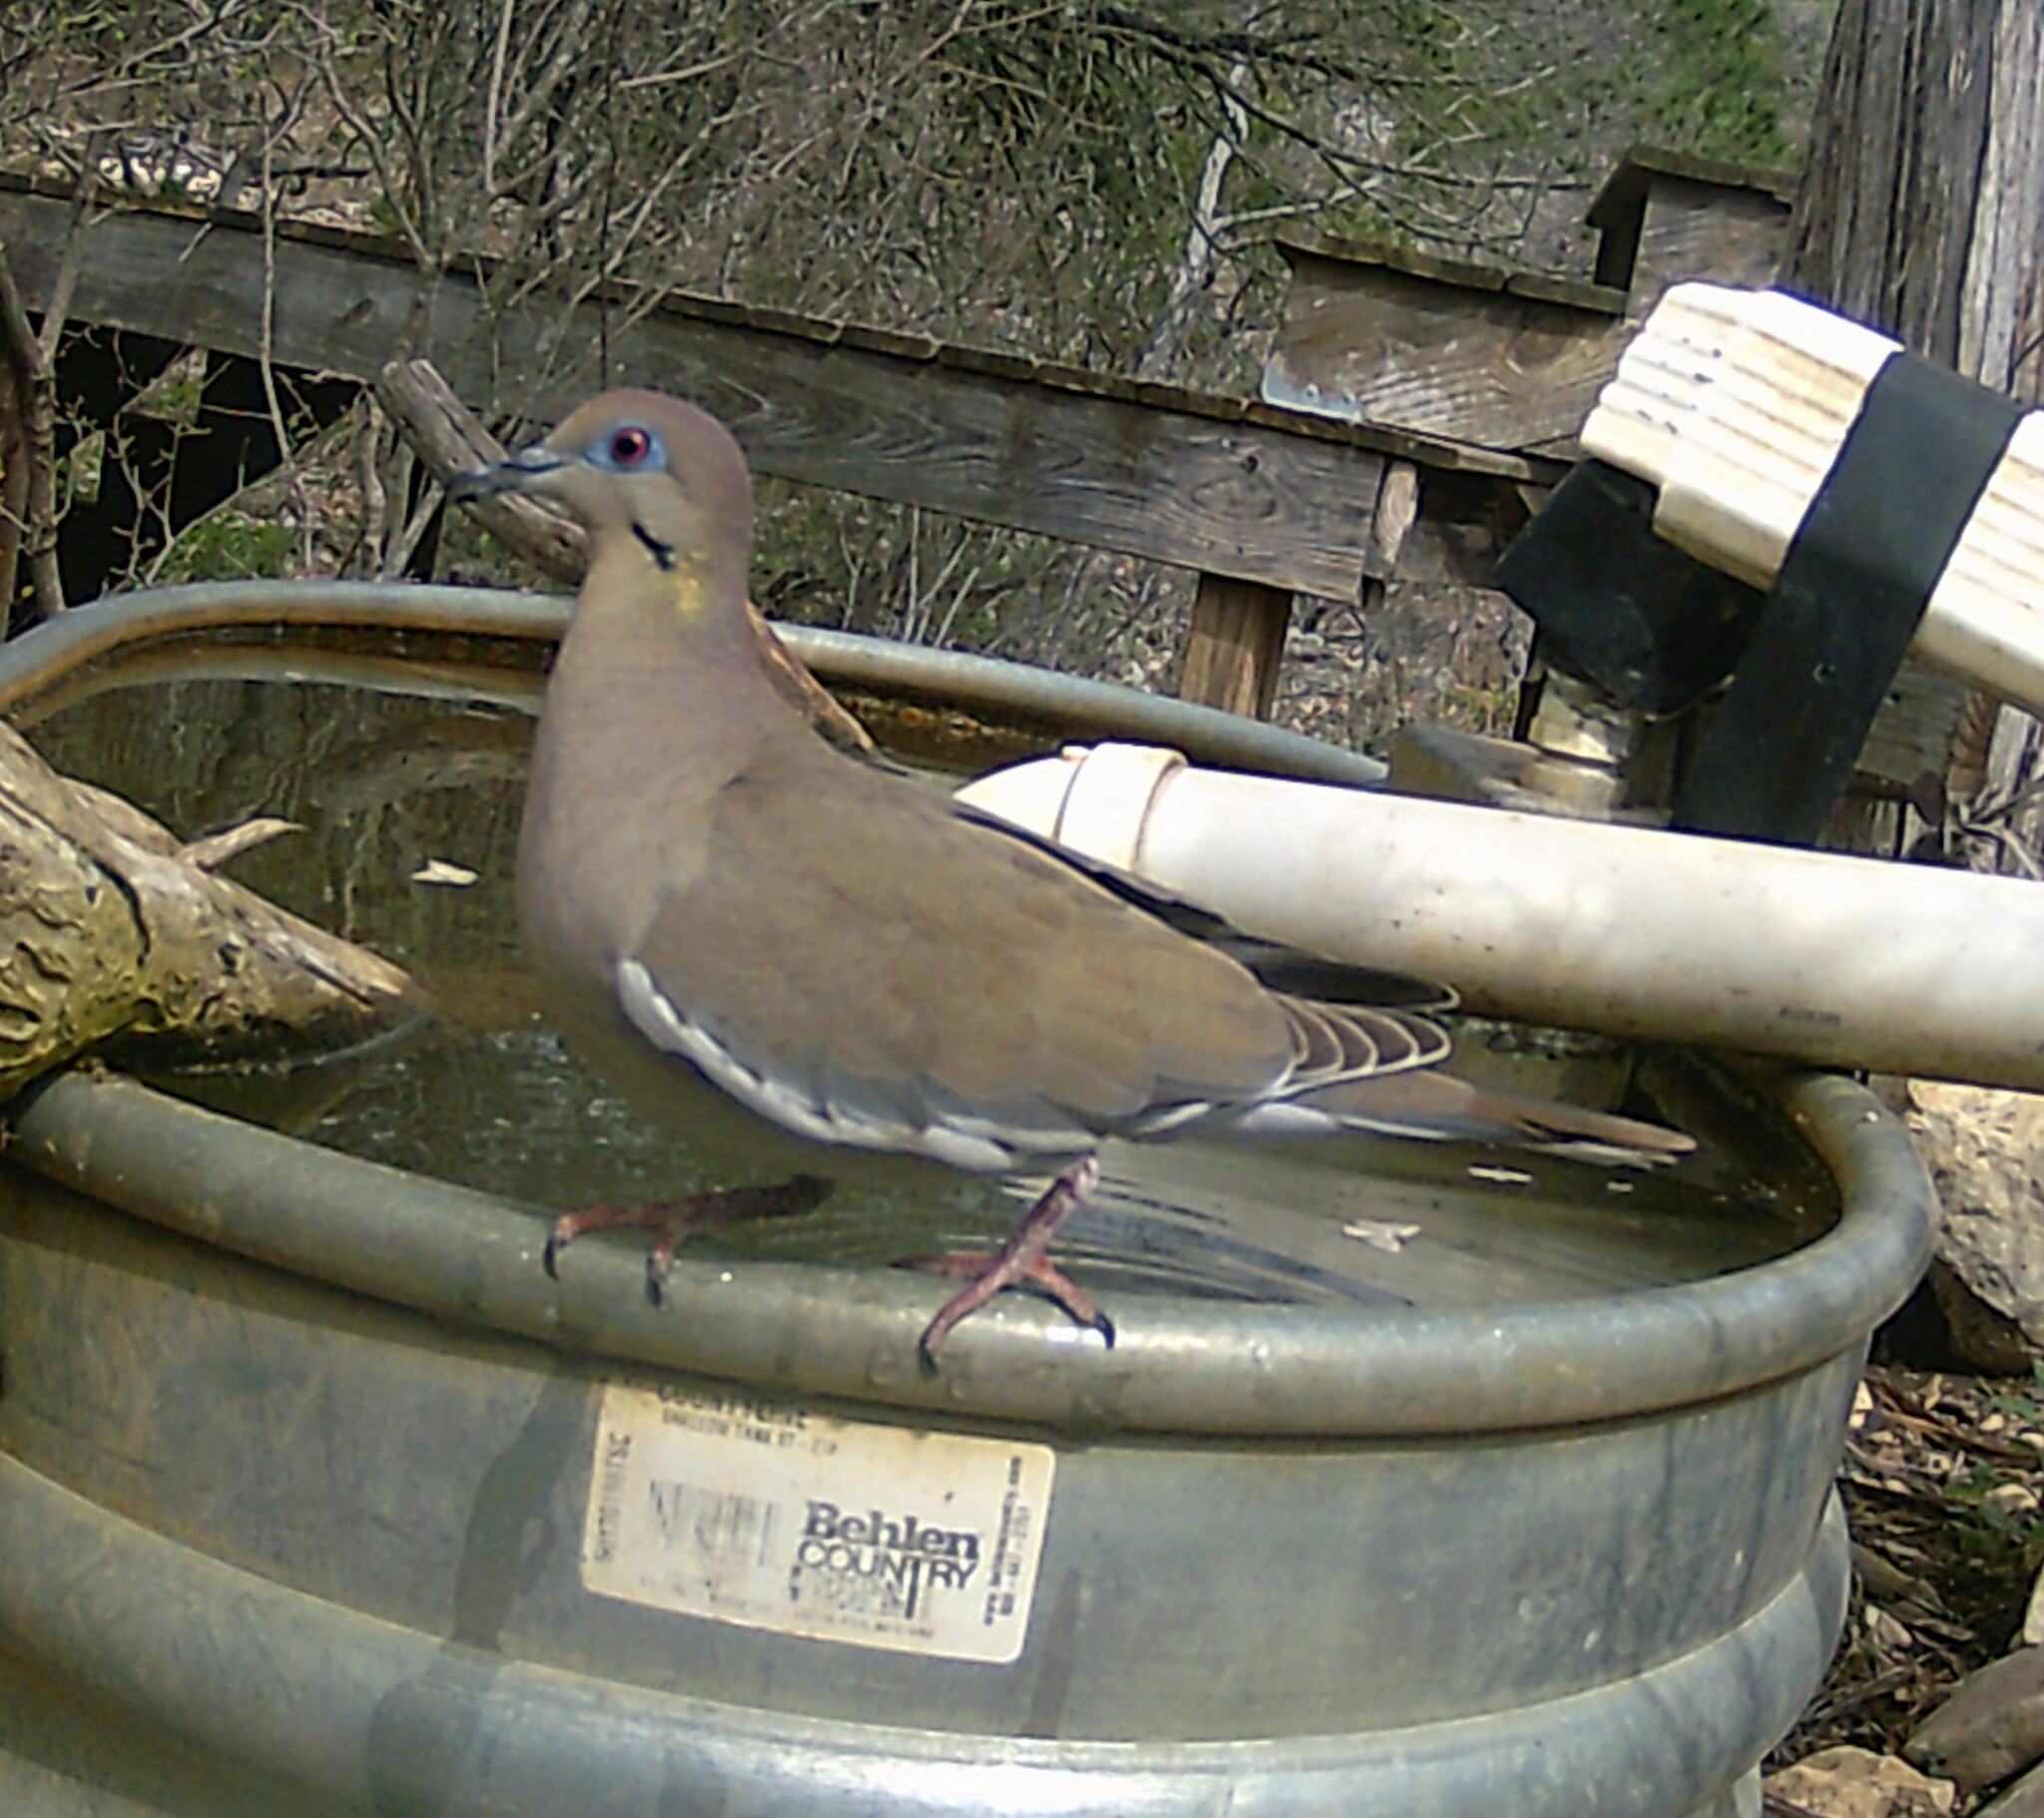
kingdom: Animalia
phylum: Chordata
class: Aves
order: Columbiformes
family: Columbidae
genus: Zenaida
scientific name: Zenaida asiatica
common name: White-winged dove
